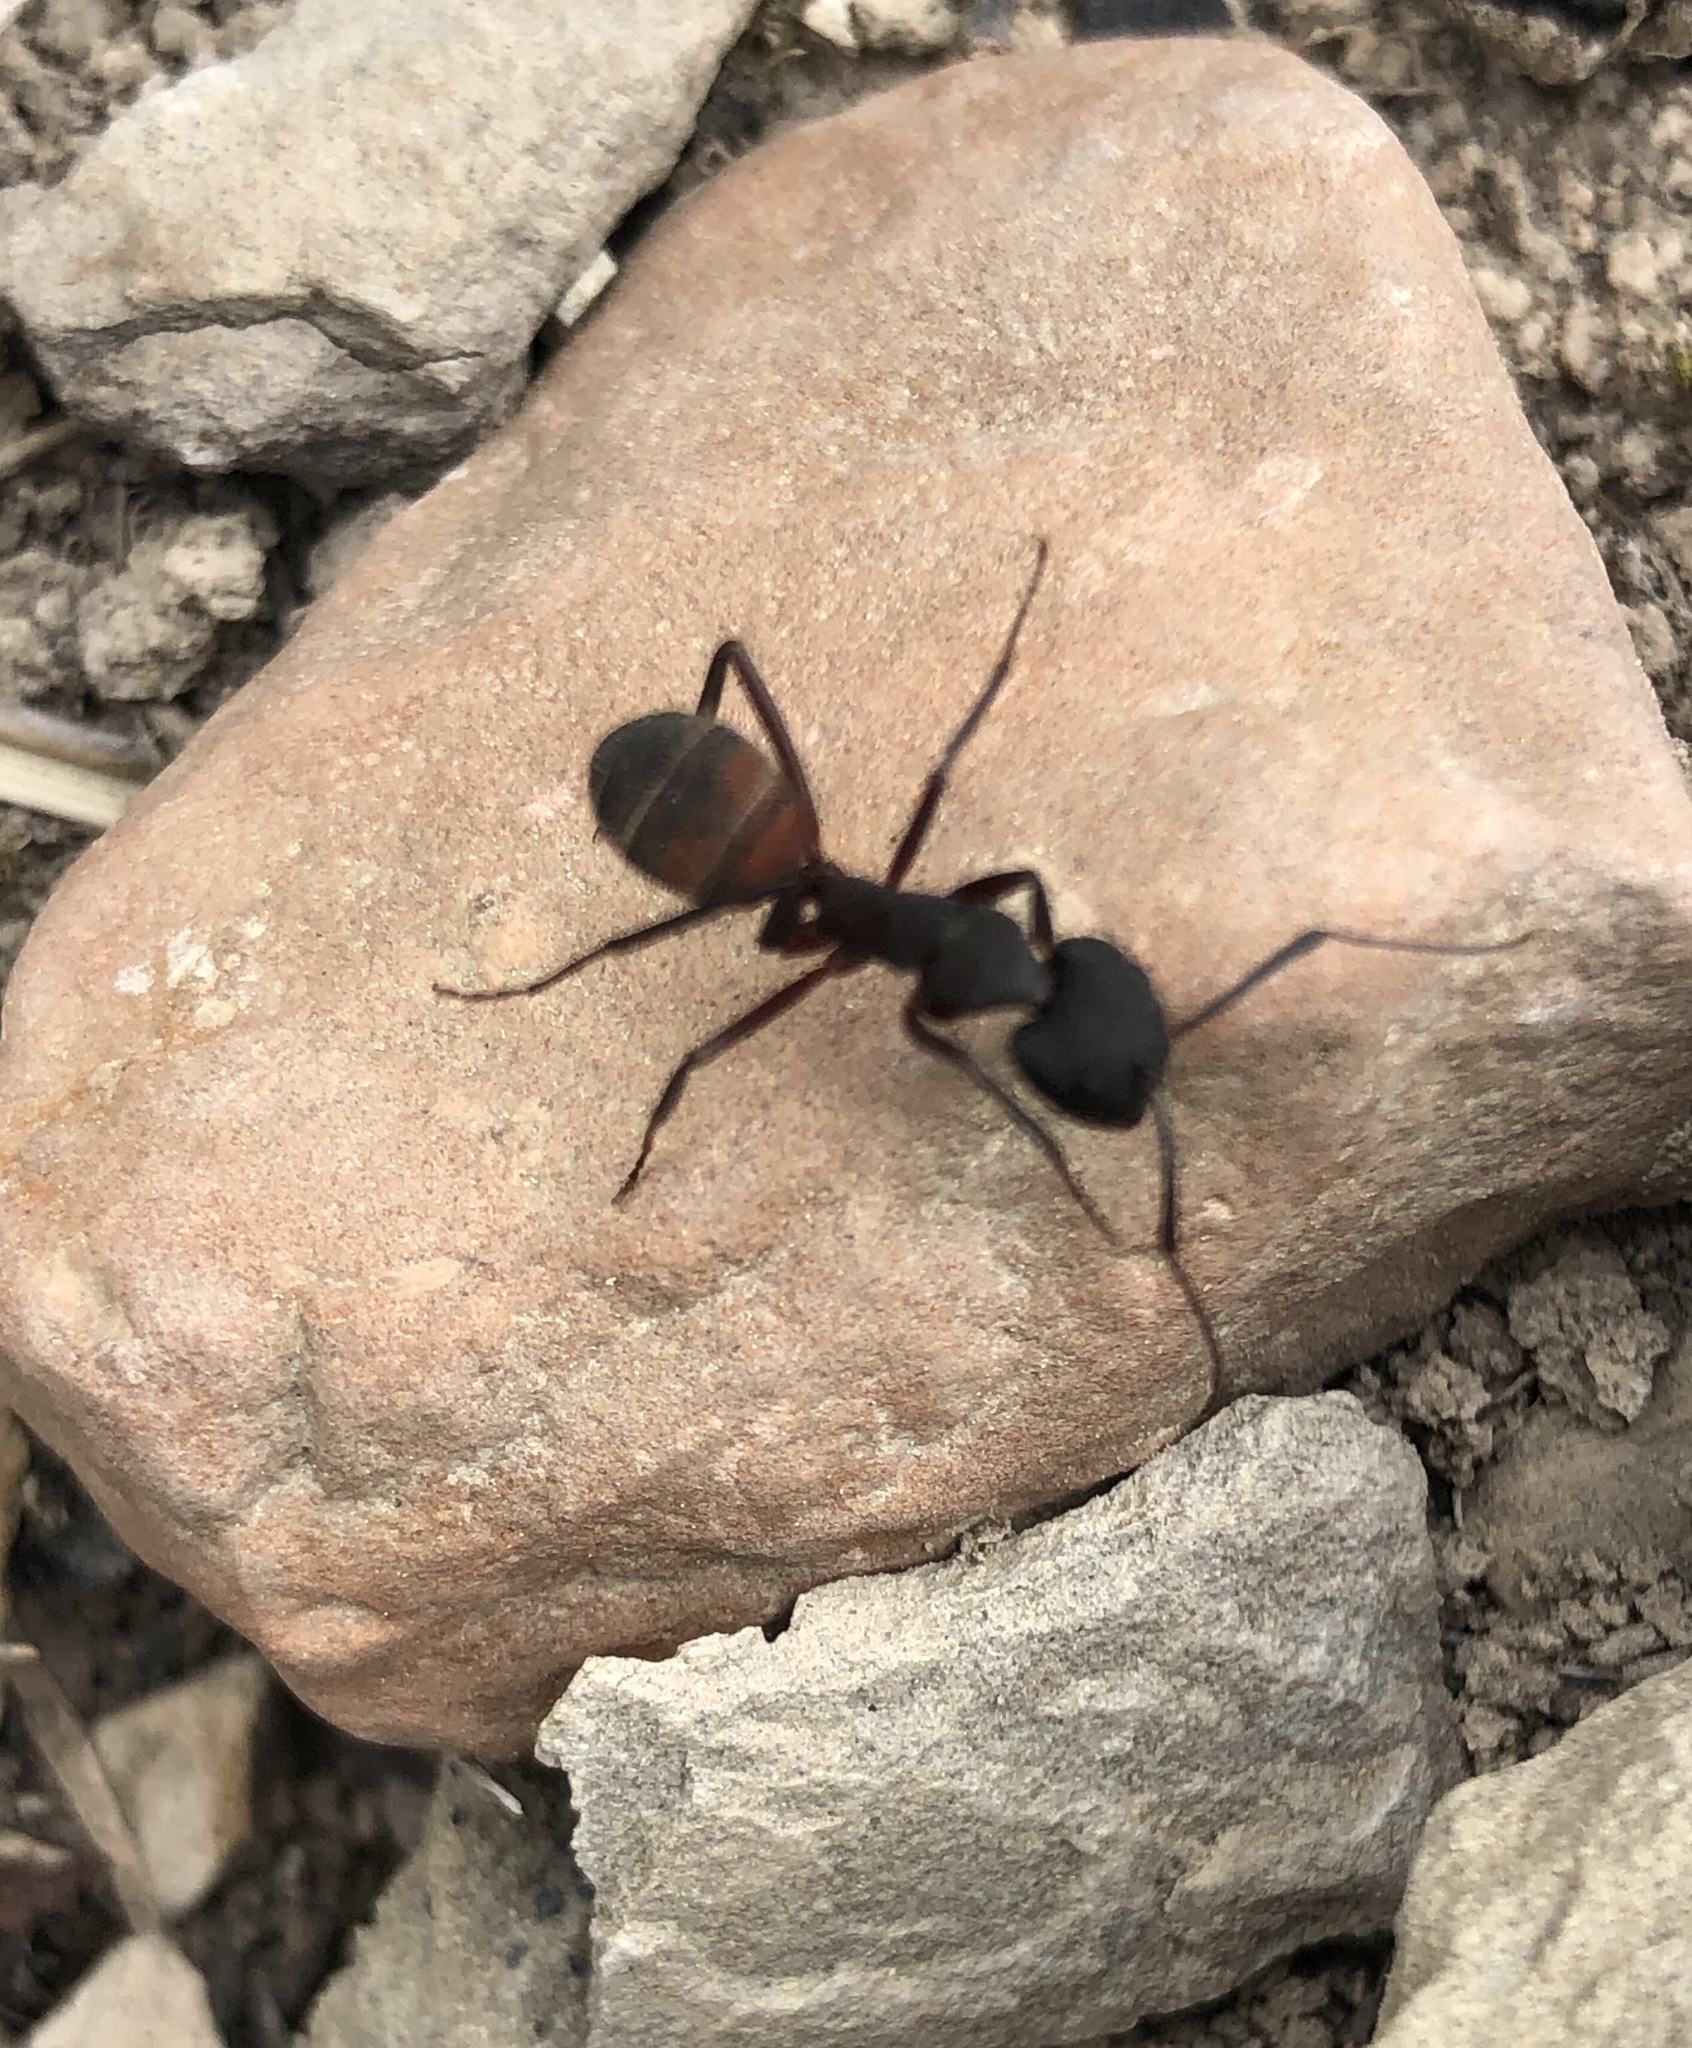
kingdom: Animalia
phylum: Arthropoda
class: Insecta
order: Hymenoptera
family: Formicidae
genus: Camponotus
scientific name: Camponotus cruentatus
